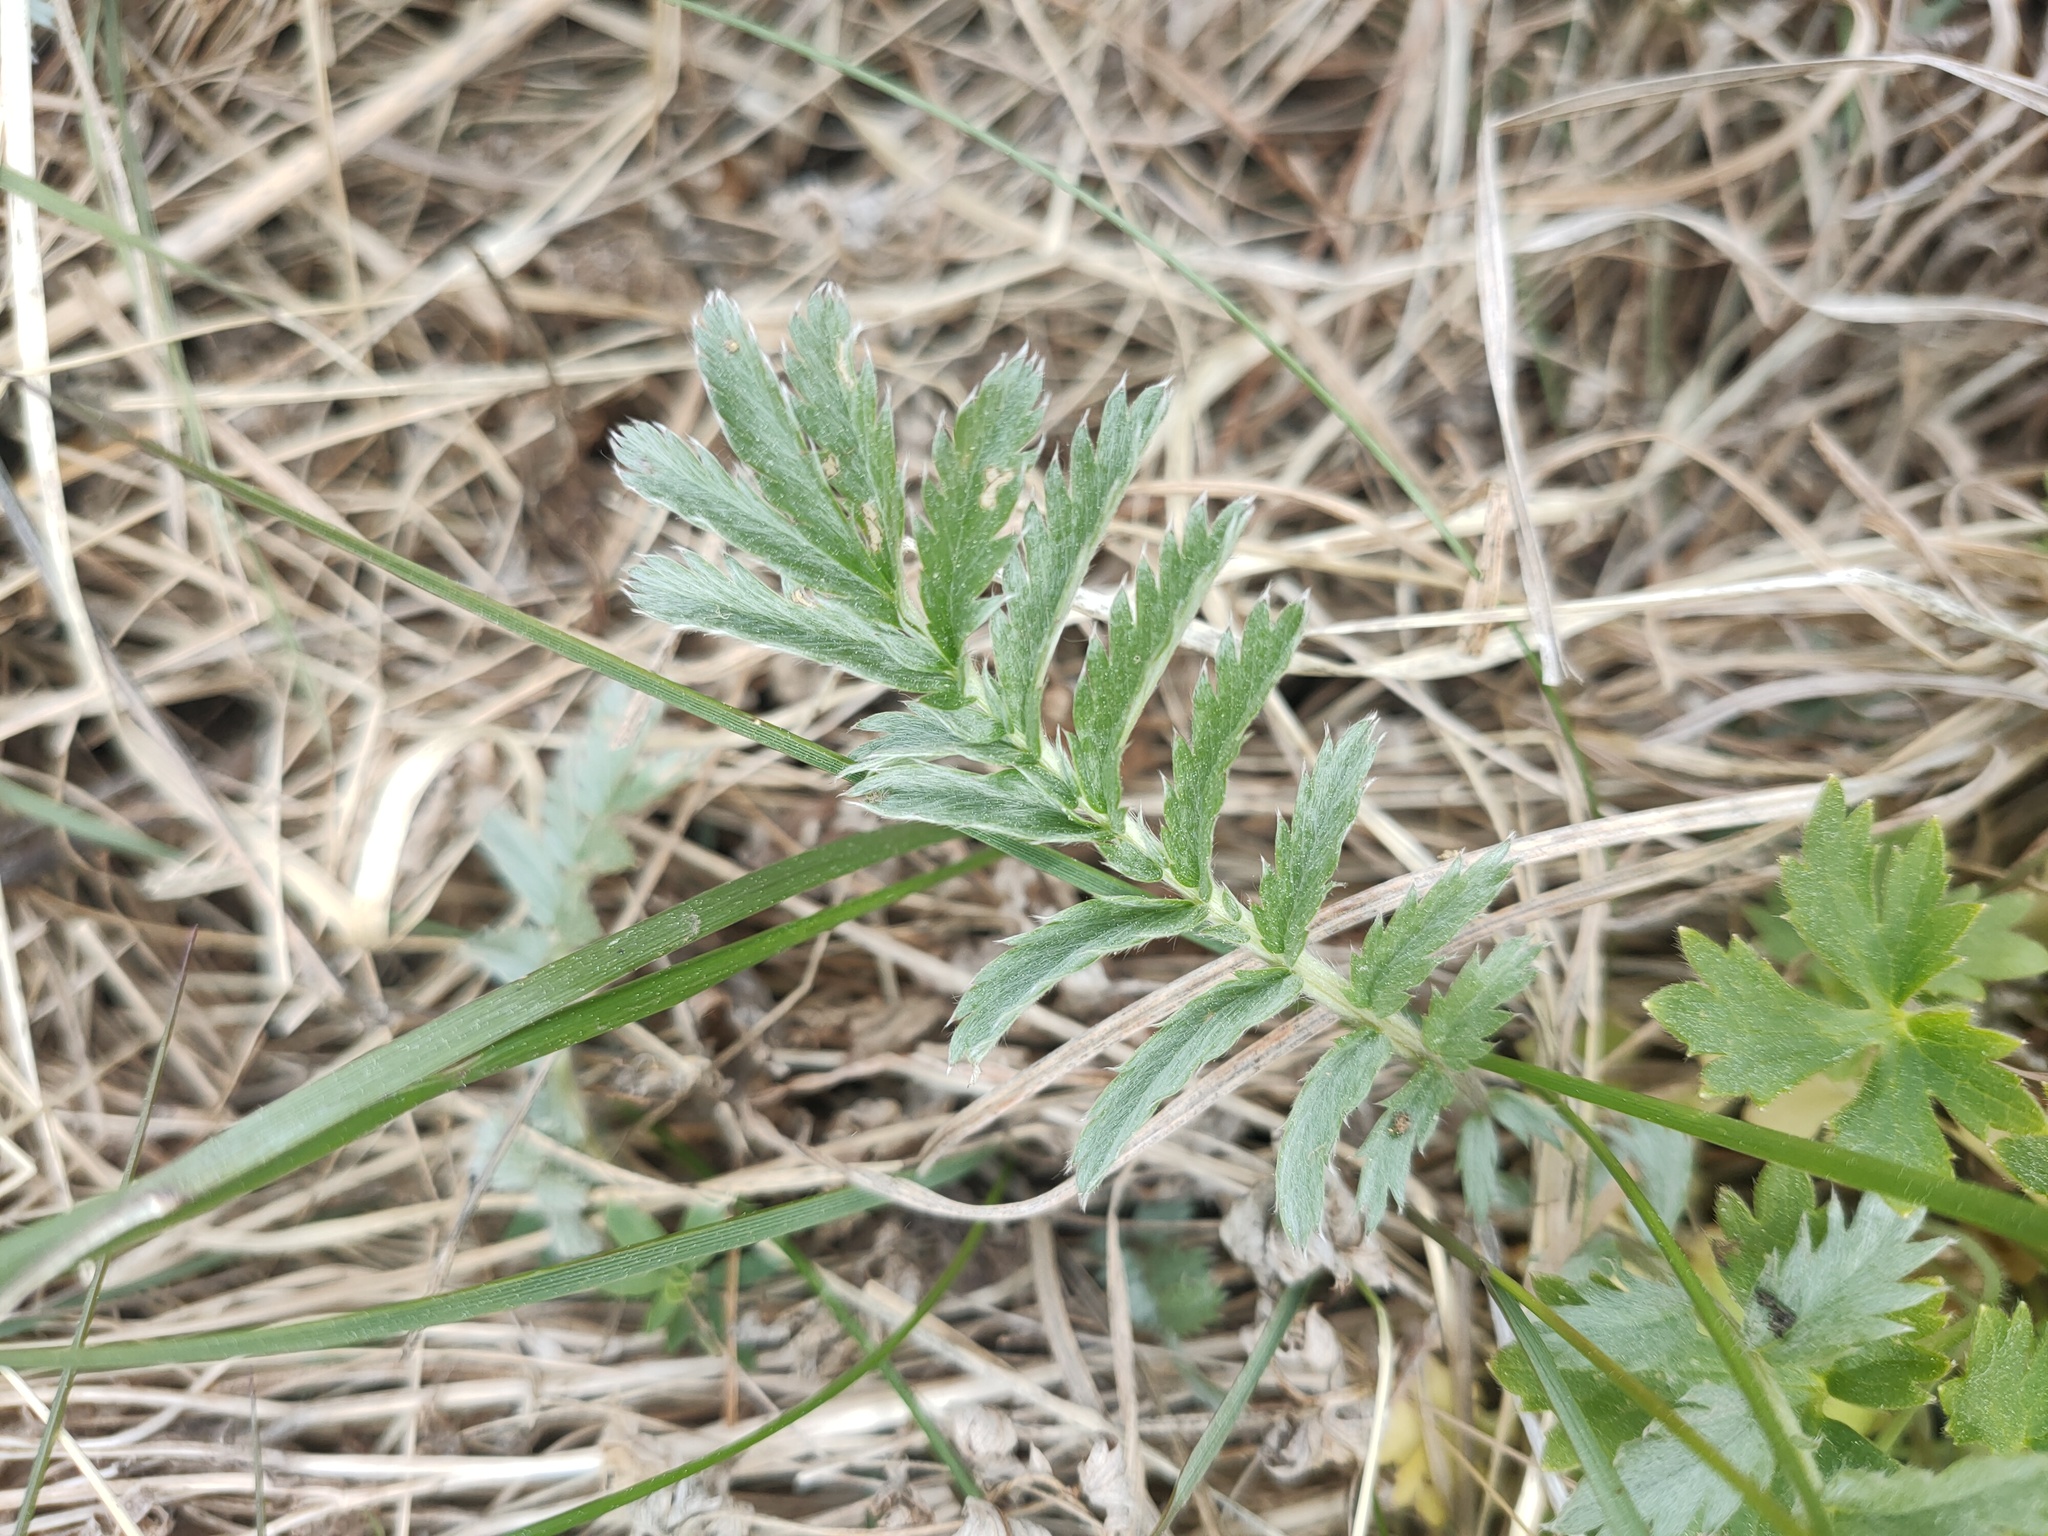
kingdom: Plantae
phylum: Tracheophyta
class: Magnoliopsida
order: Rosales
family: Rosaceae
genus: Argentina
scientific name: Argentina anserina
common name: Common silverweed
